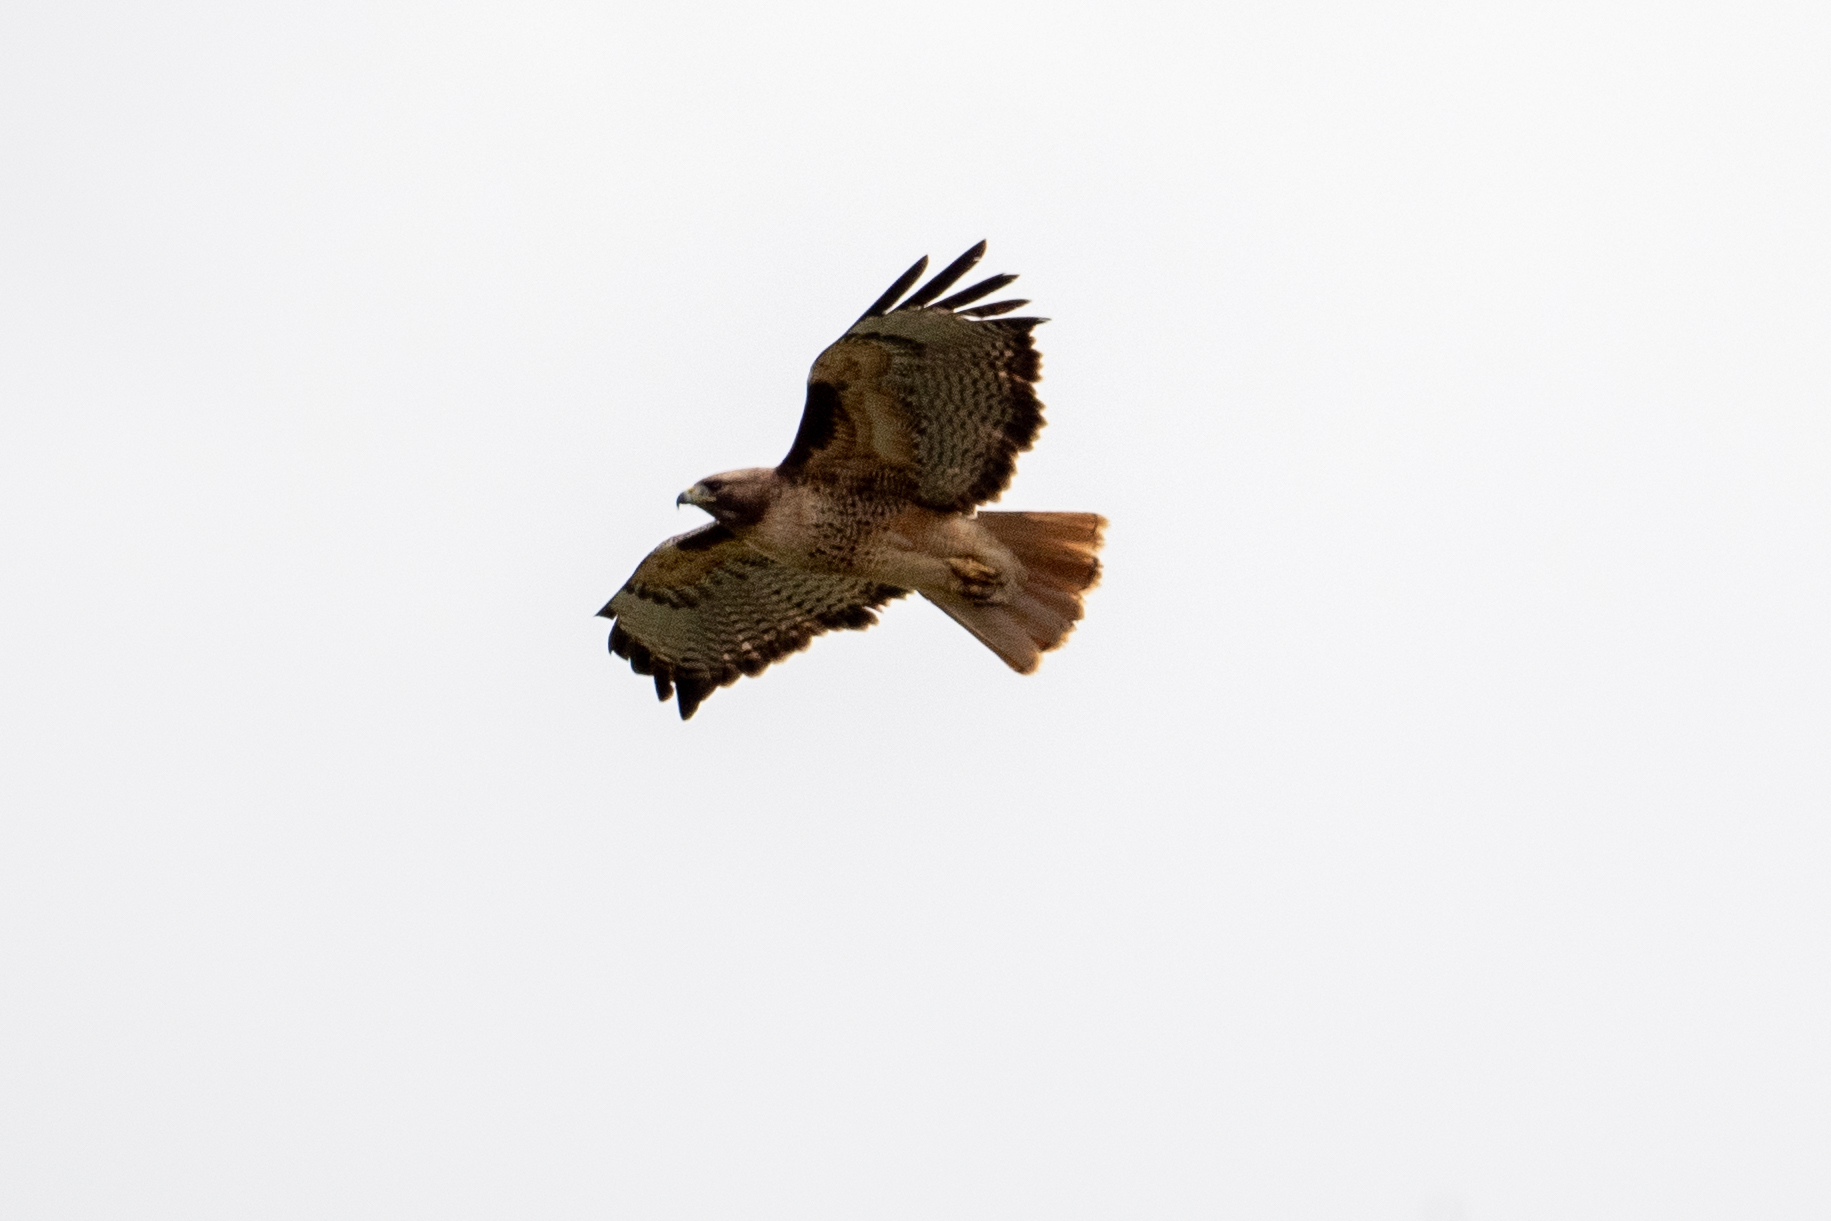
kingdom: Animalia
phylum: Chordata
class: Aves
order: Accipitriformes
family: Accipitridae
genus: Buteo
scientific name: Buteo jamaicensis
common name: Red-tailed hawk
